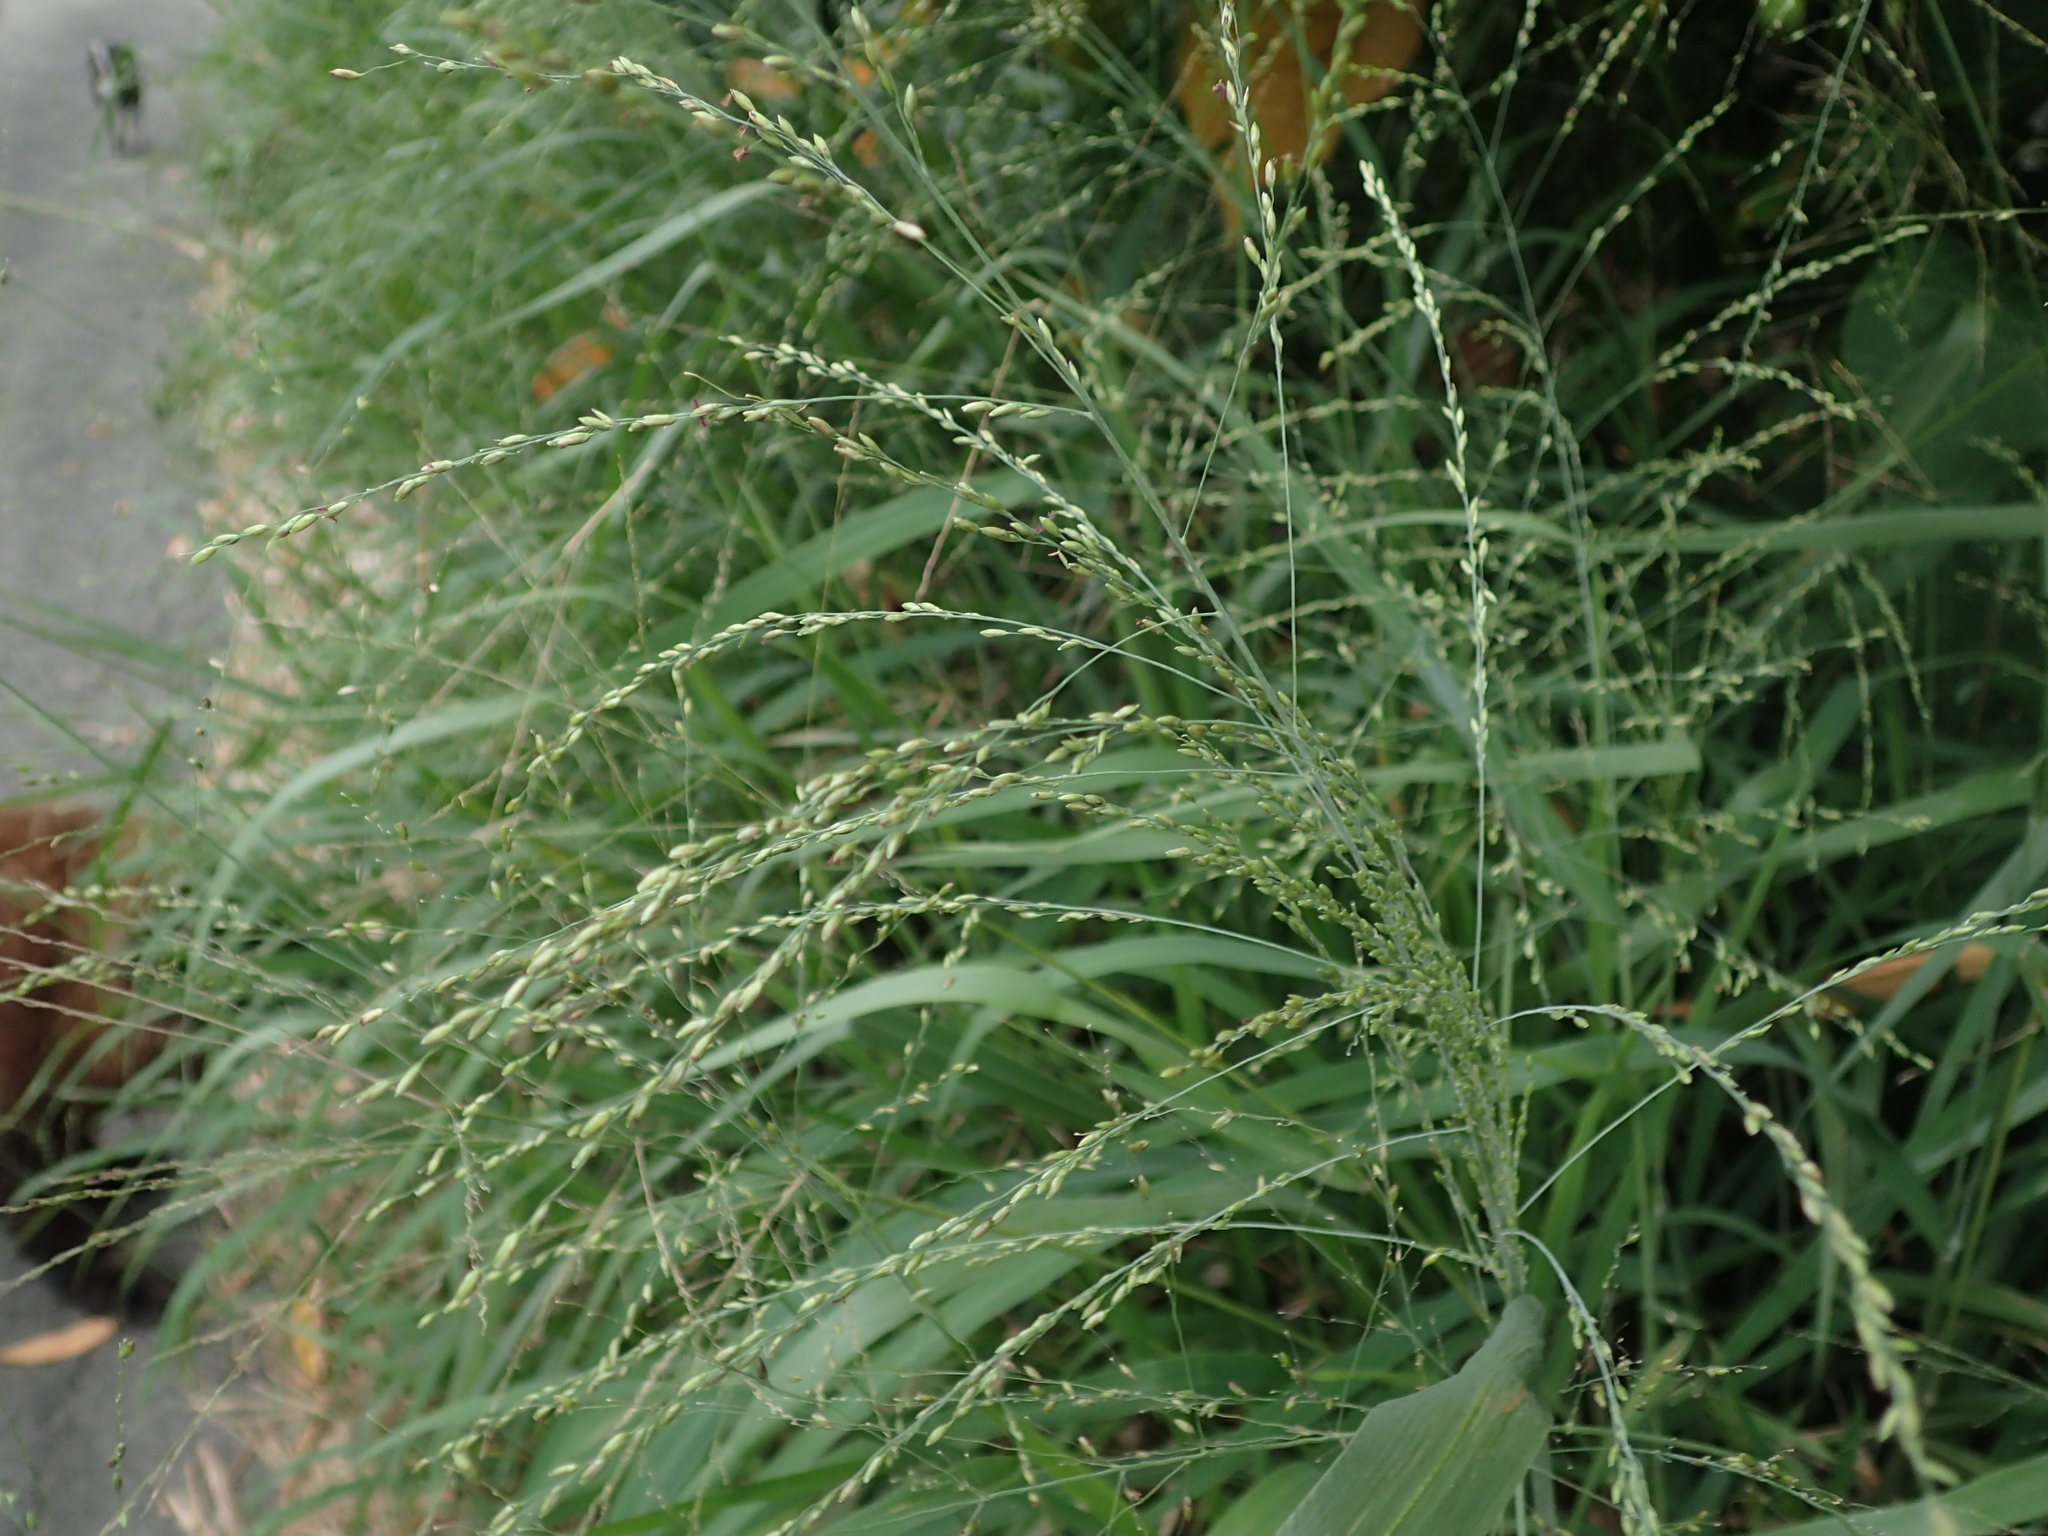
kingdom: Plantae
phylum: Tracheophyta
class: Liliopsida
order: Poales
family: Poaceae
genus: Megathyrsus
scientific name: Megathyrsus maximus
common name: Guineagrass
